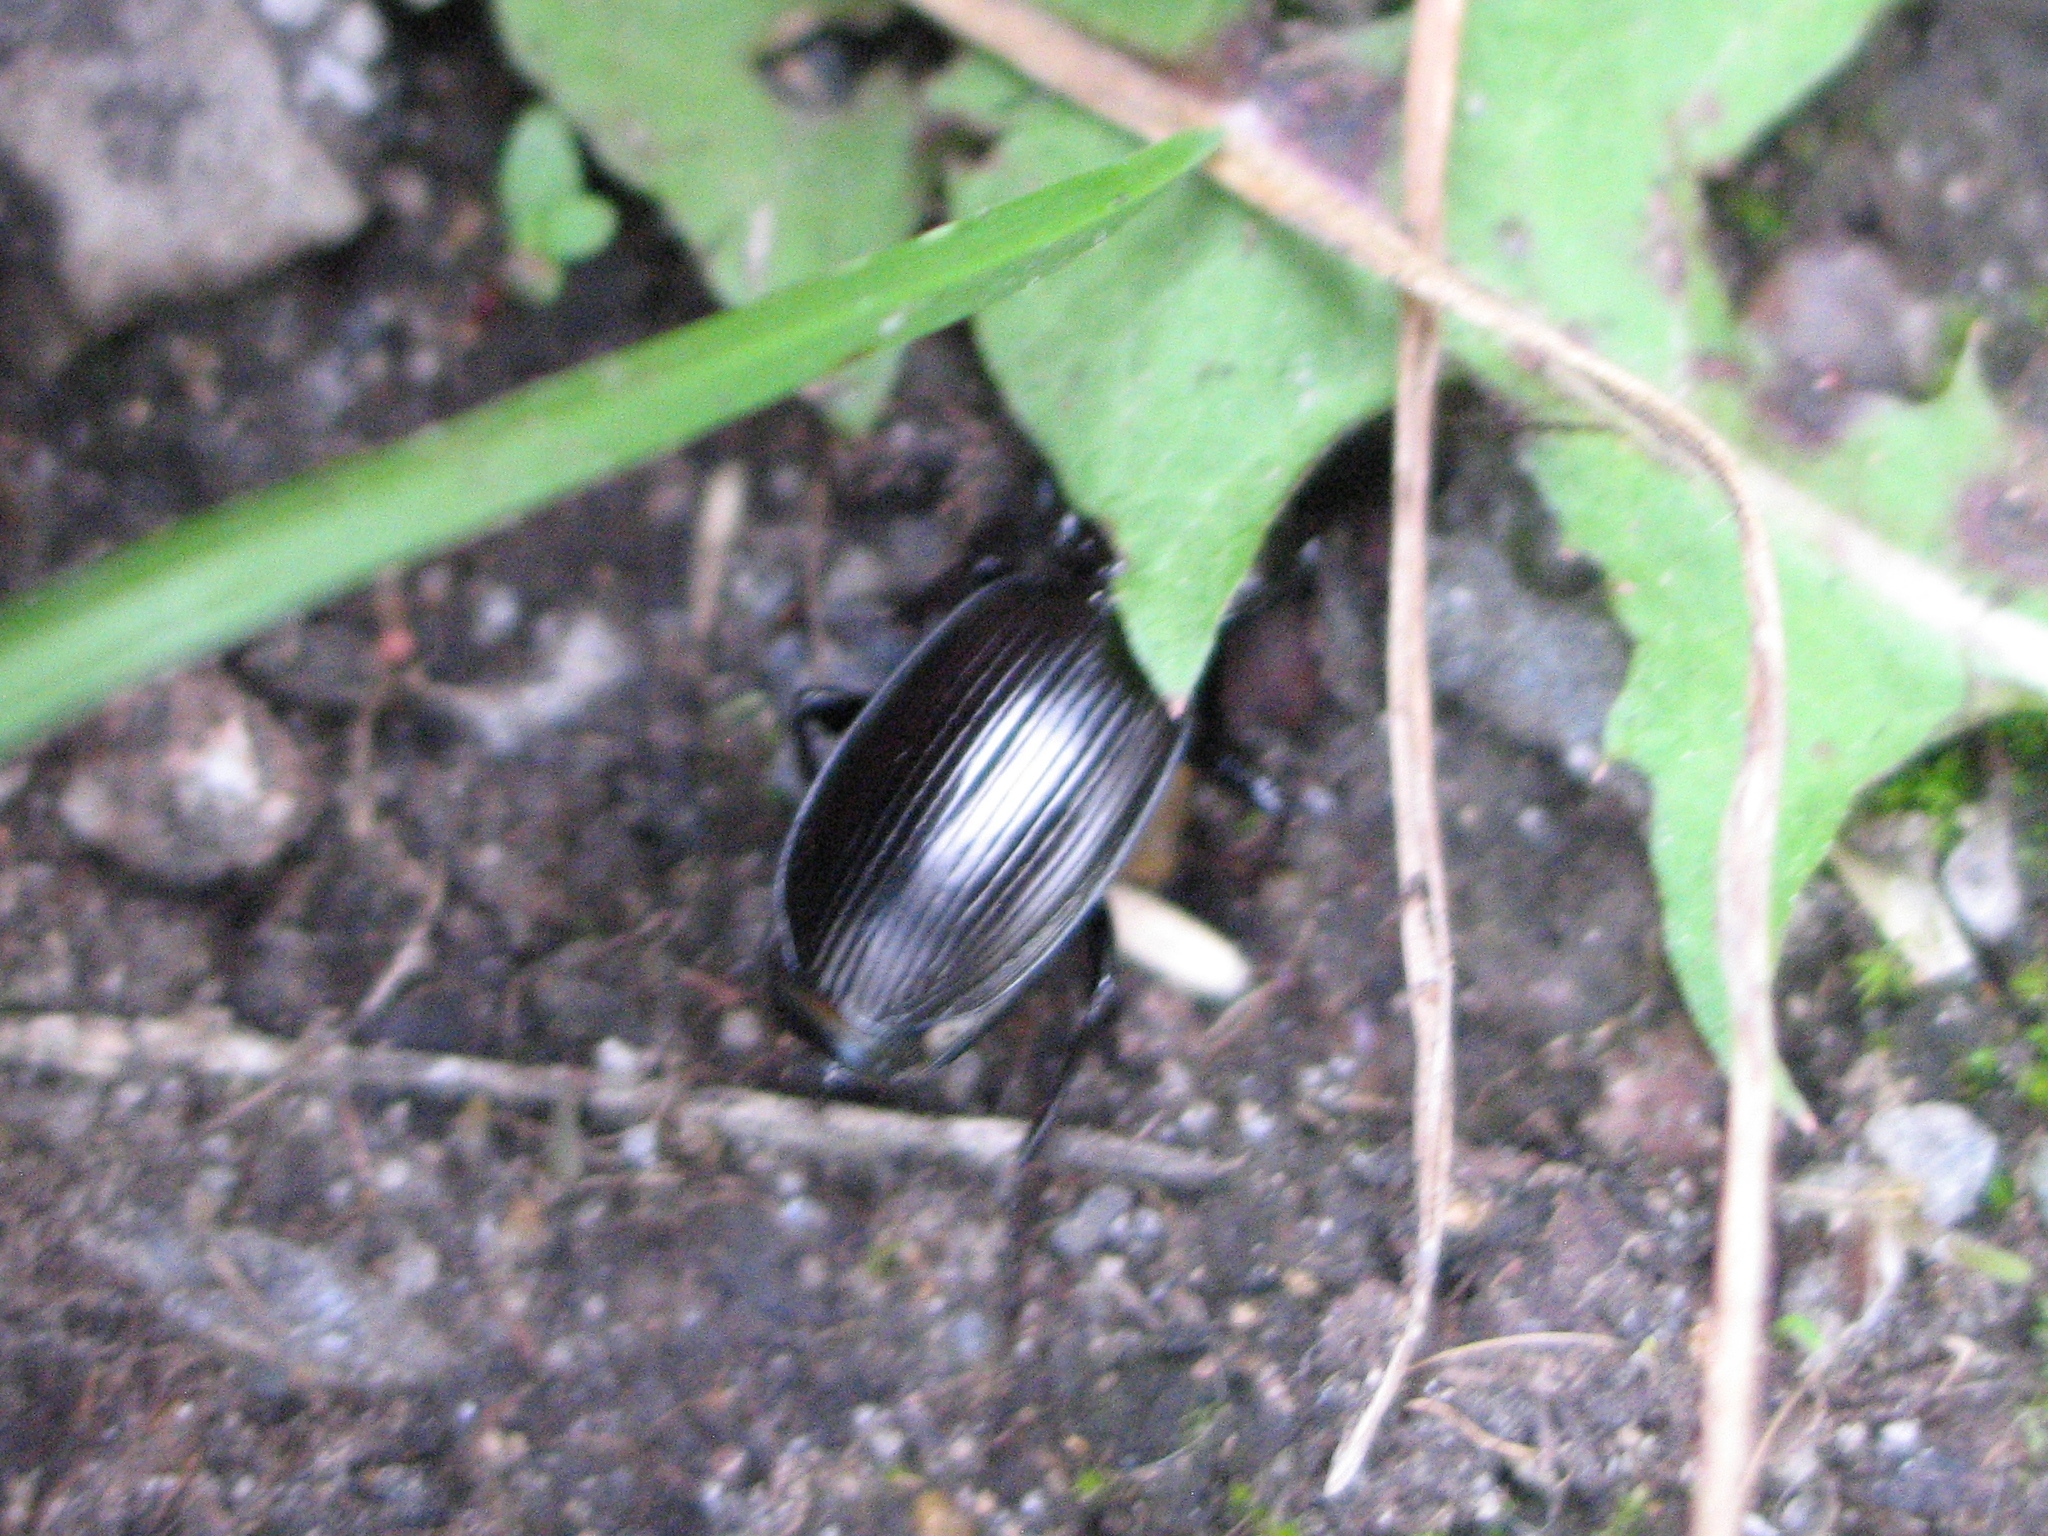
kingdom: Animalia
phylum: Arthropoda
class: Insecta
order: Coleoptera
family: Carabidae
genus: Pterostichus
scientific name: Pterostichus madidus
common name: Black clock
